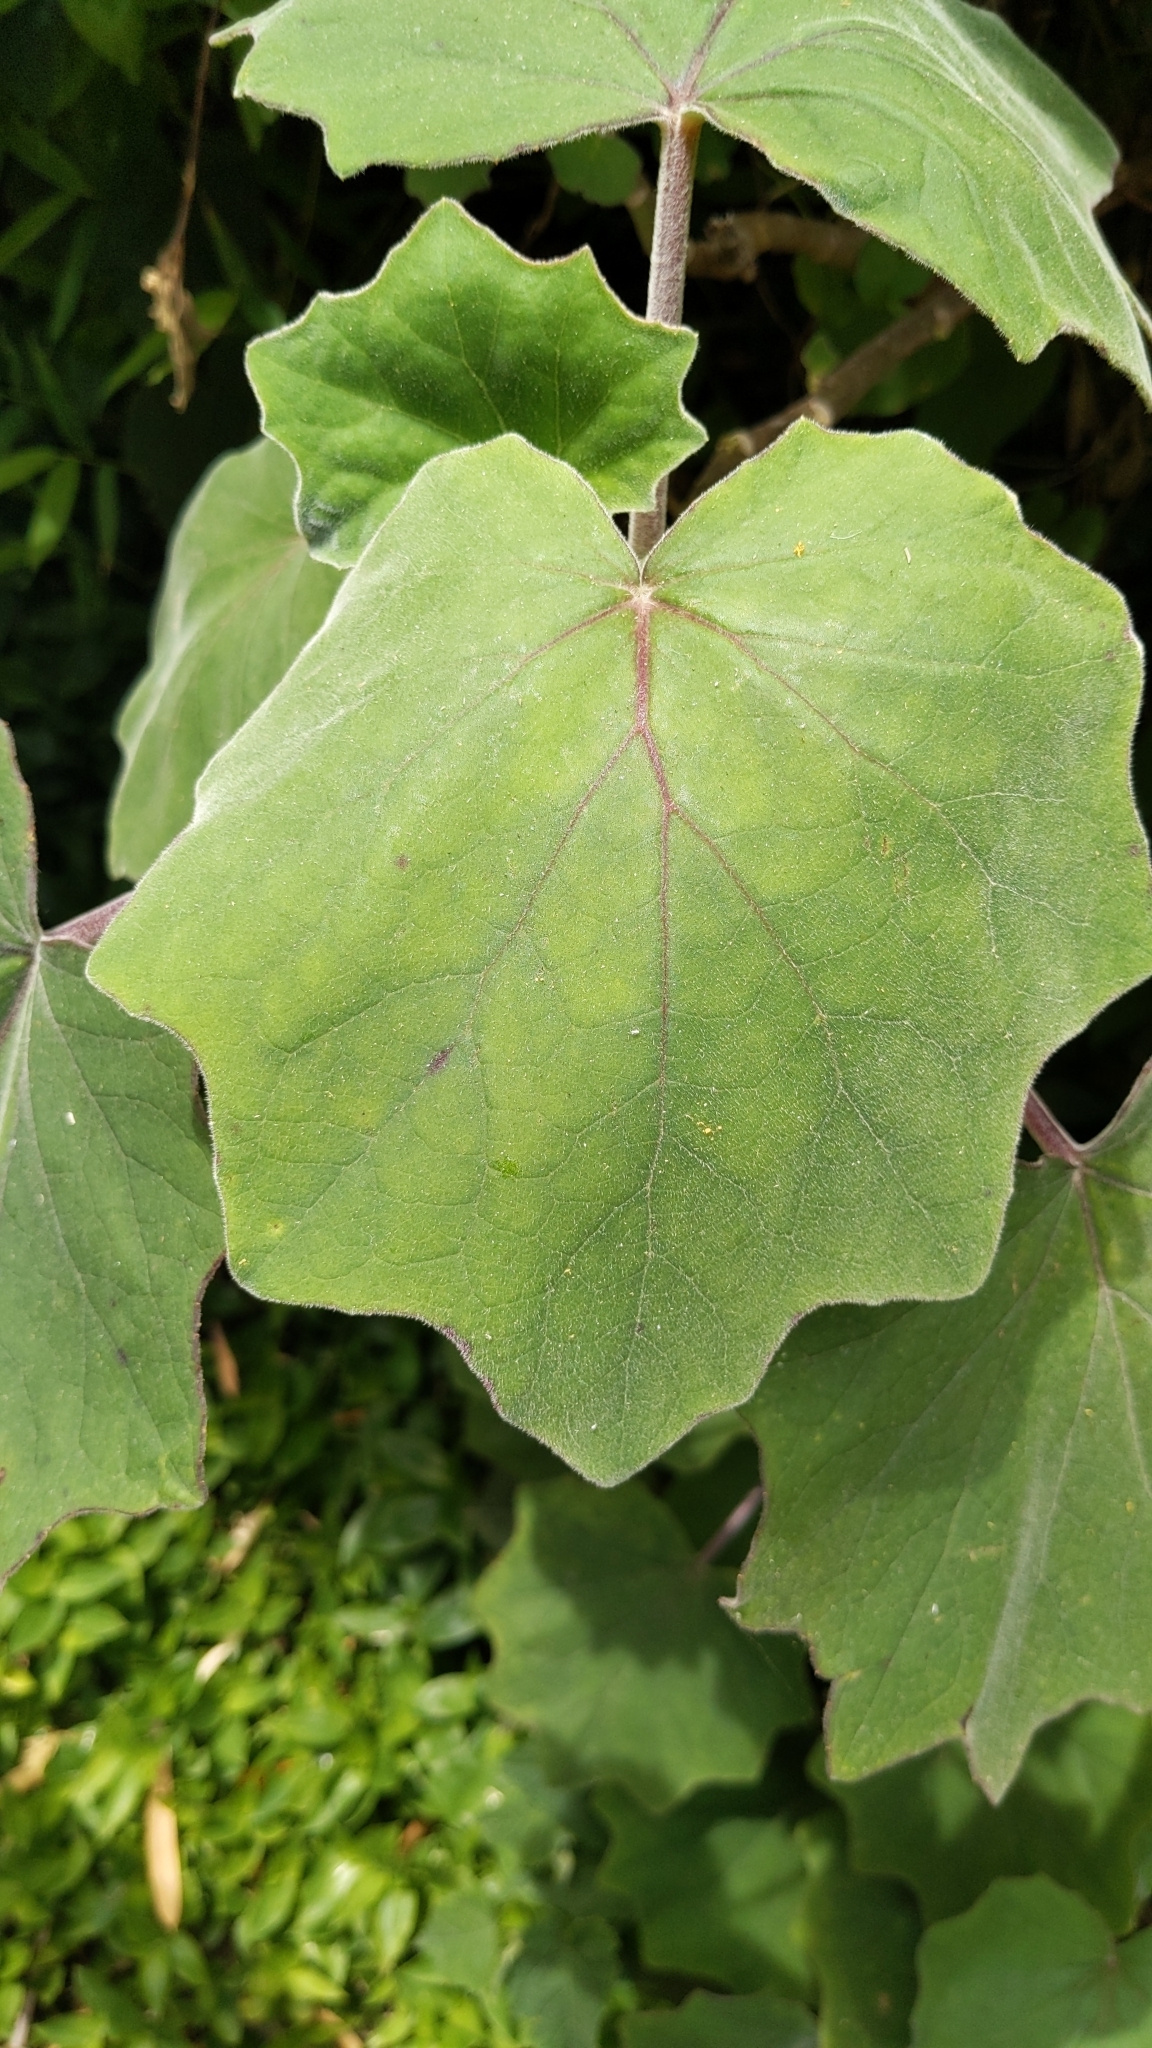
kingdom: Plantae
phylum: Tracheophyta
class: Magnoliopsida
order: Asterales
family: Asteraceae
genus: Roldana
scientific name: Roldana petasitis
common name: California-geranium
